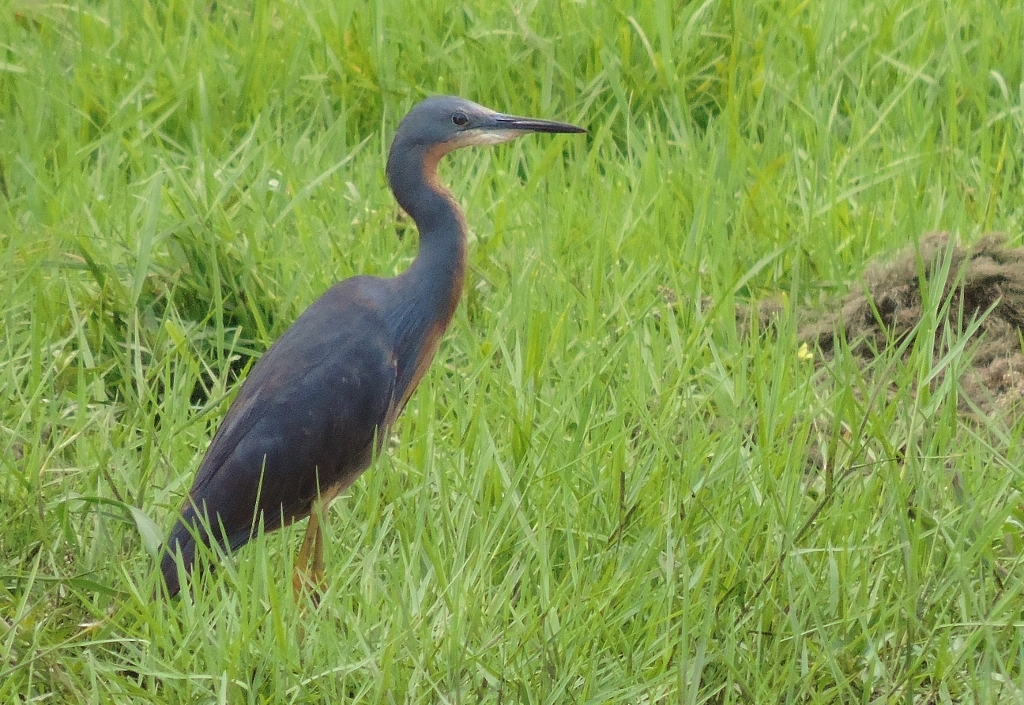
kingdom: Animalia
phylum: Chordata
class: Aves
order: Pelecaniformes
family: Ardeidae
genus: Egretta
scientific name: Egretta vinaceigula
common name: Slaty egret
